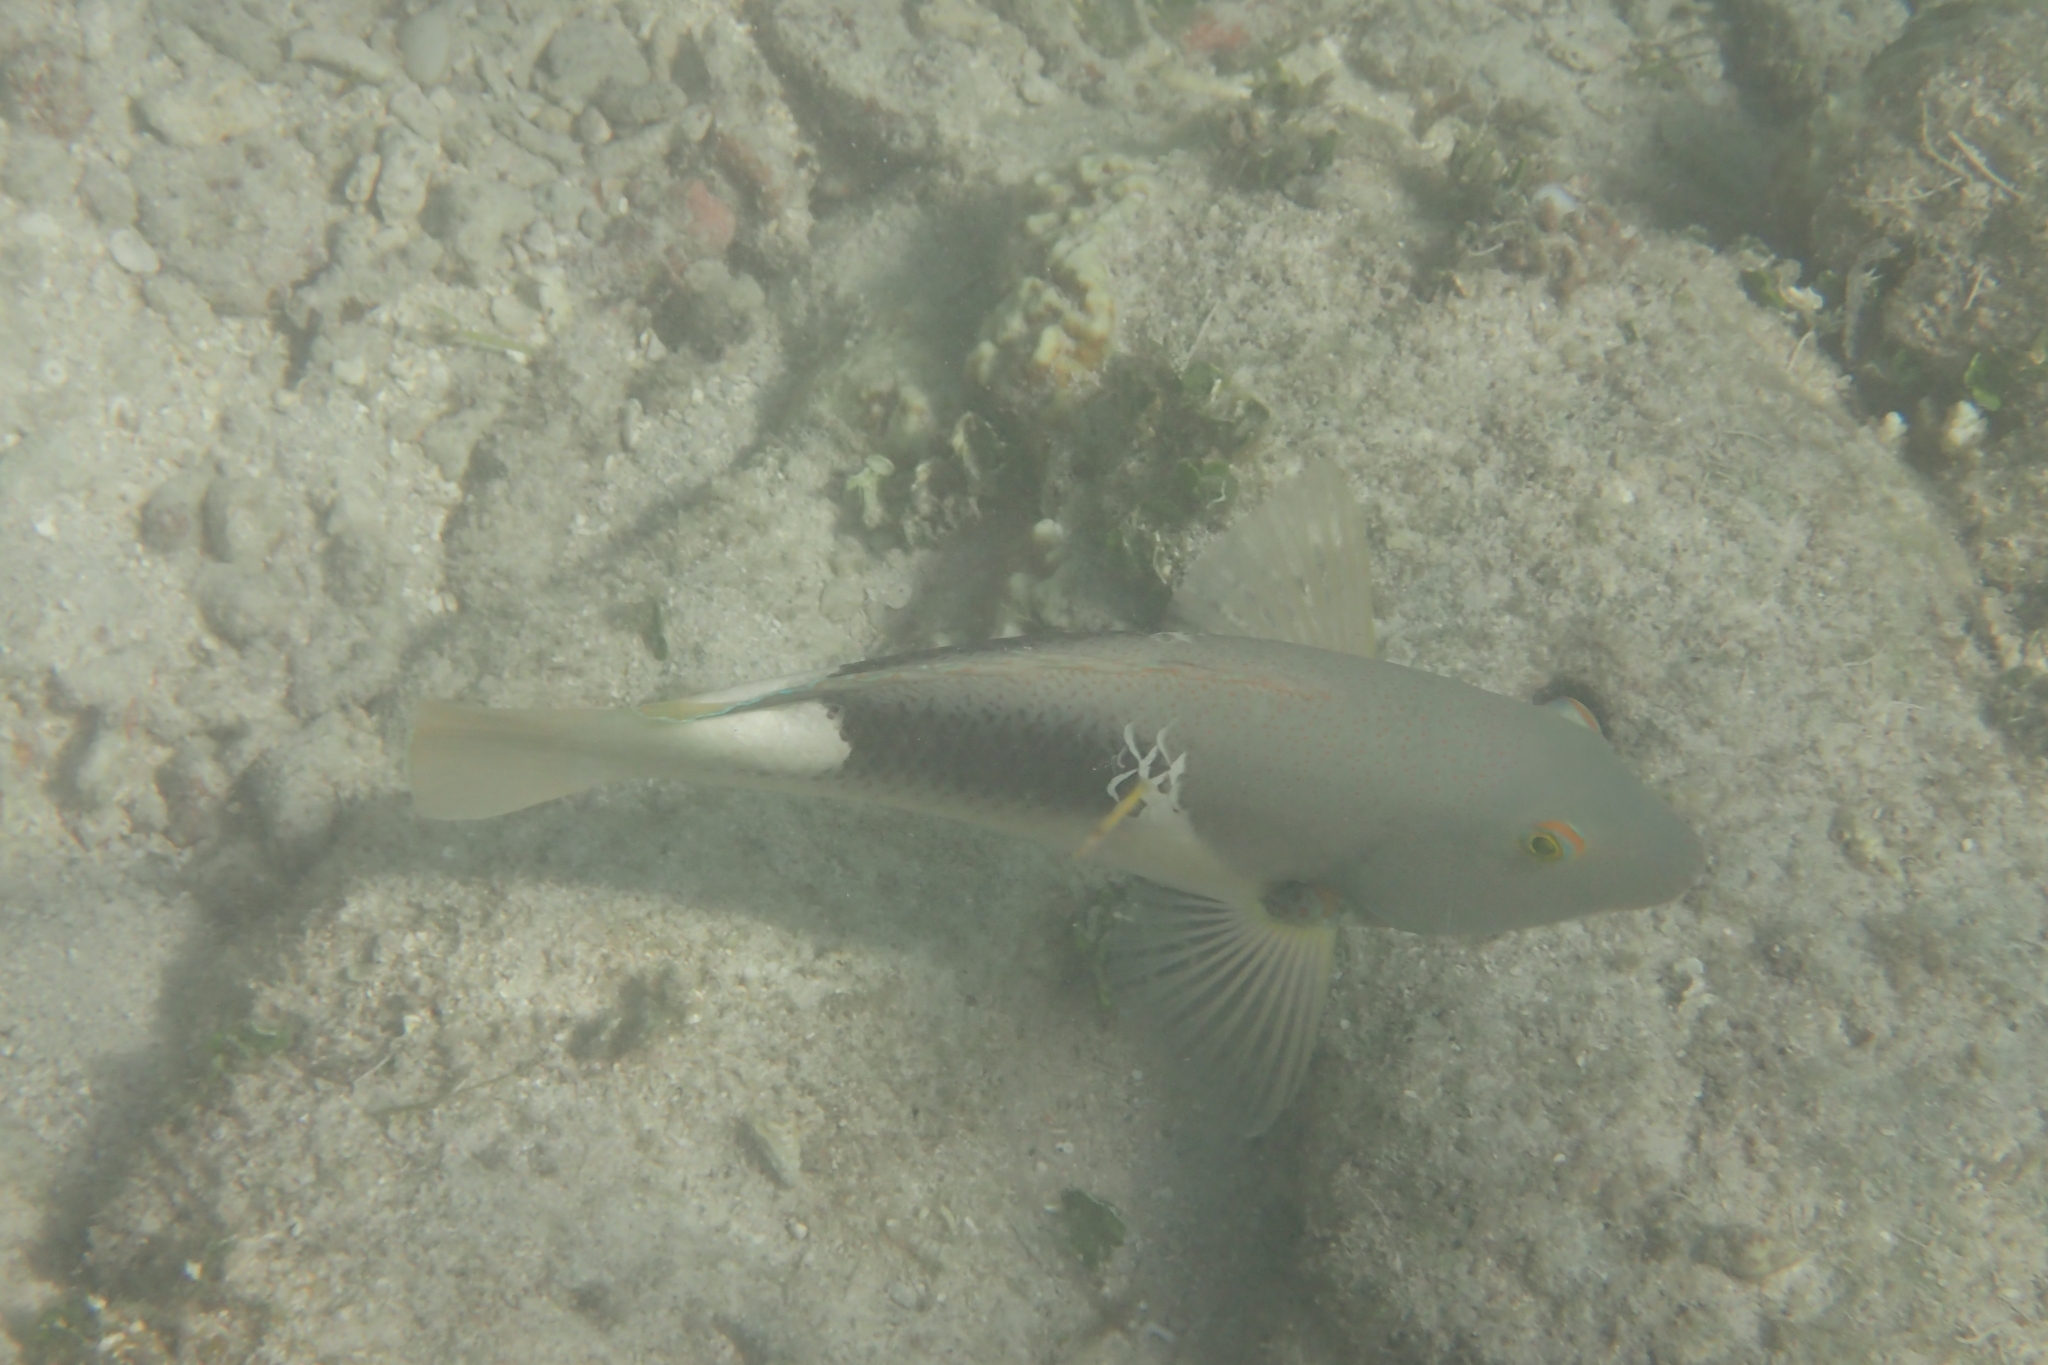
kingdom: Animalia
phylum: Chordata
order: Perciformes
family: Labridae
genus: Choerodon
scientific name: Choerodon anchorago
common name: Anchor tuskfish
